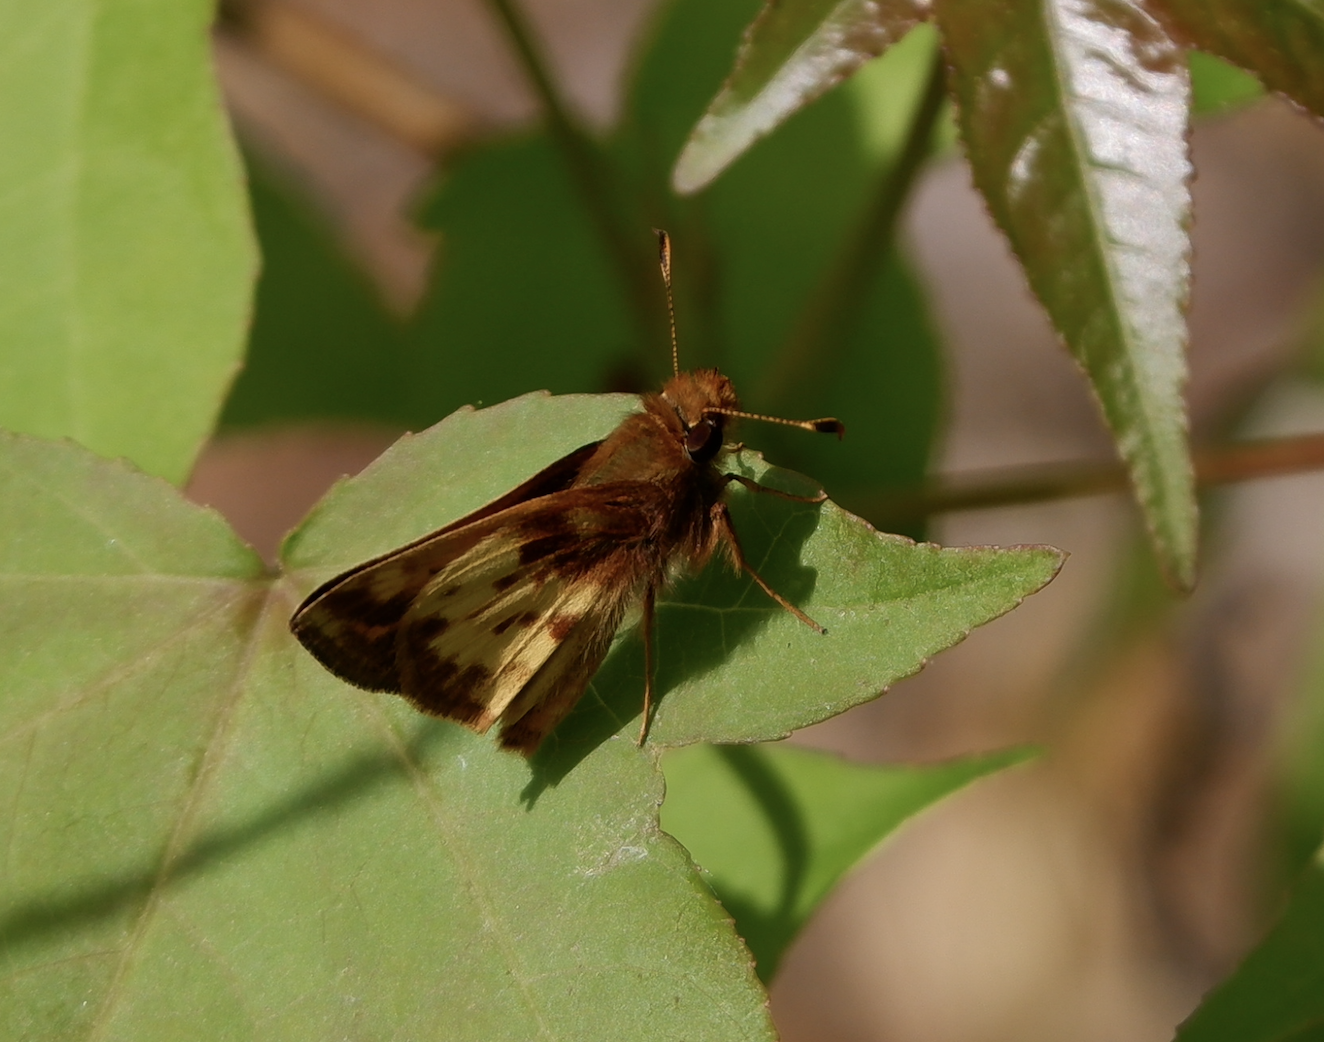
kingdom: Animalia
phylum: Arthropoda
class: Insecta
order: Lepidoptera
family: Hesperiidae
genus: Lon
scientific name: Lon zabulon
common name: Zabulon skipper
